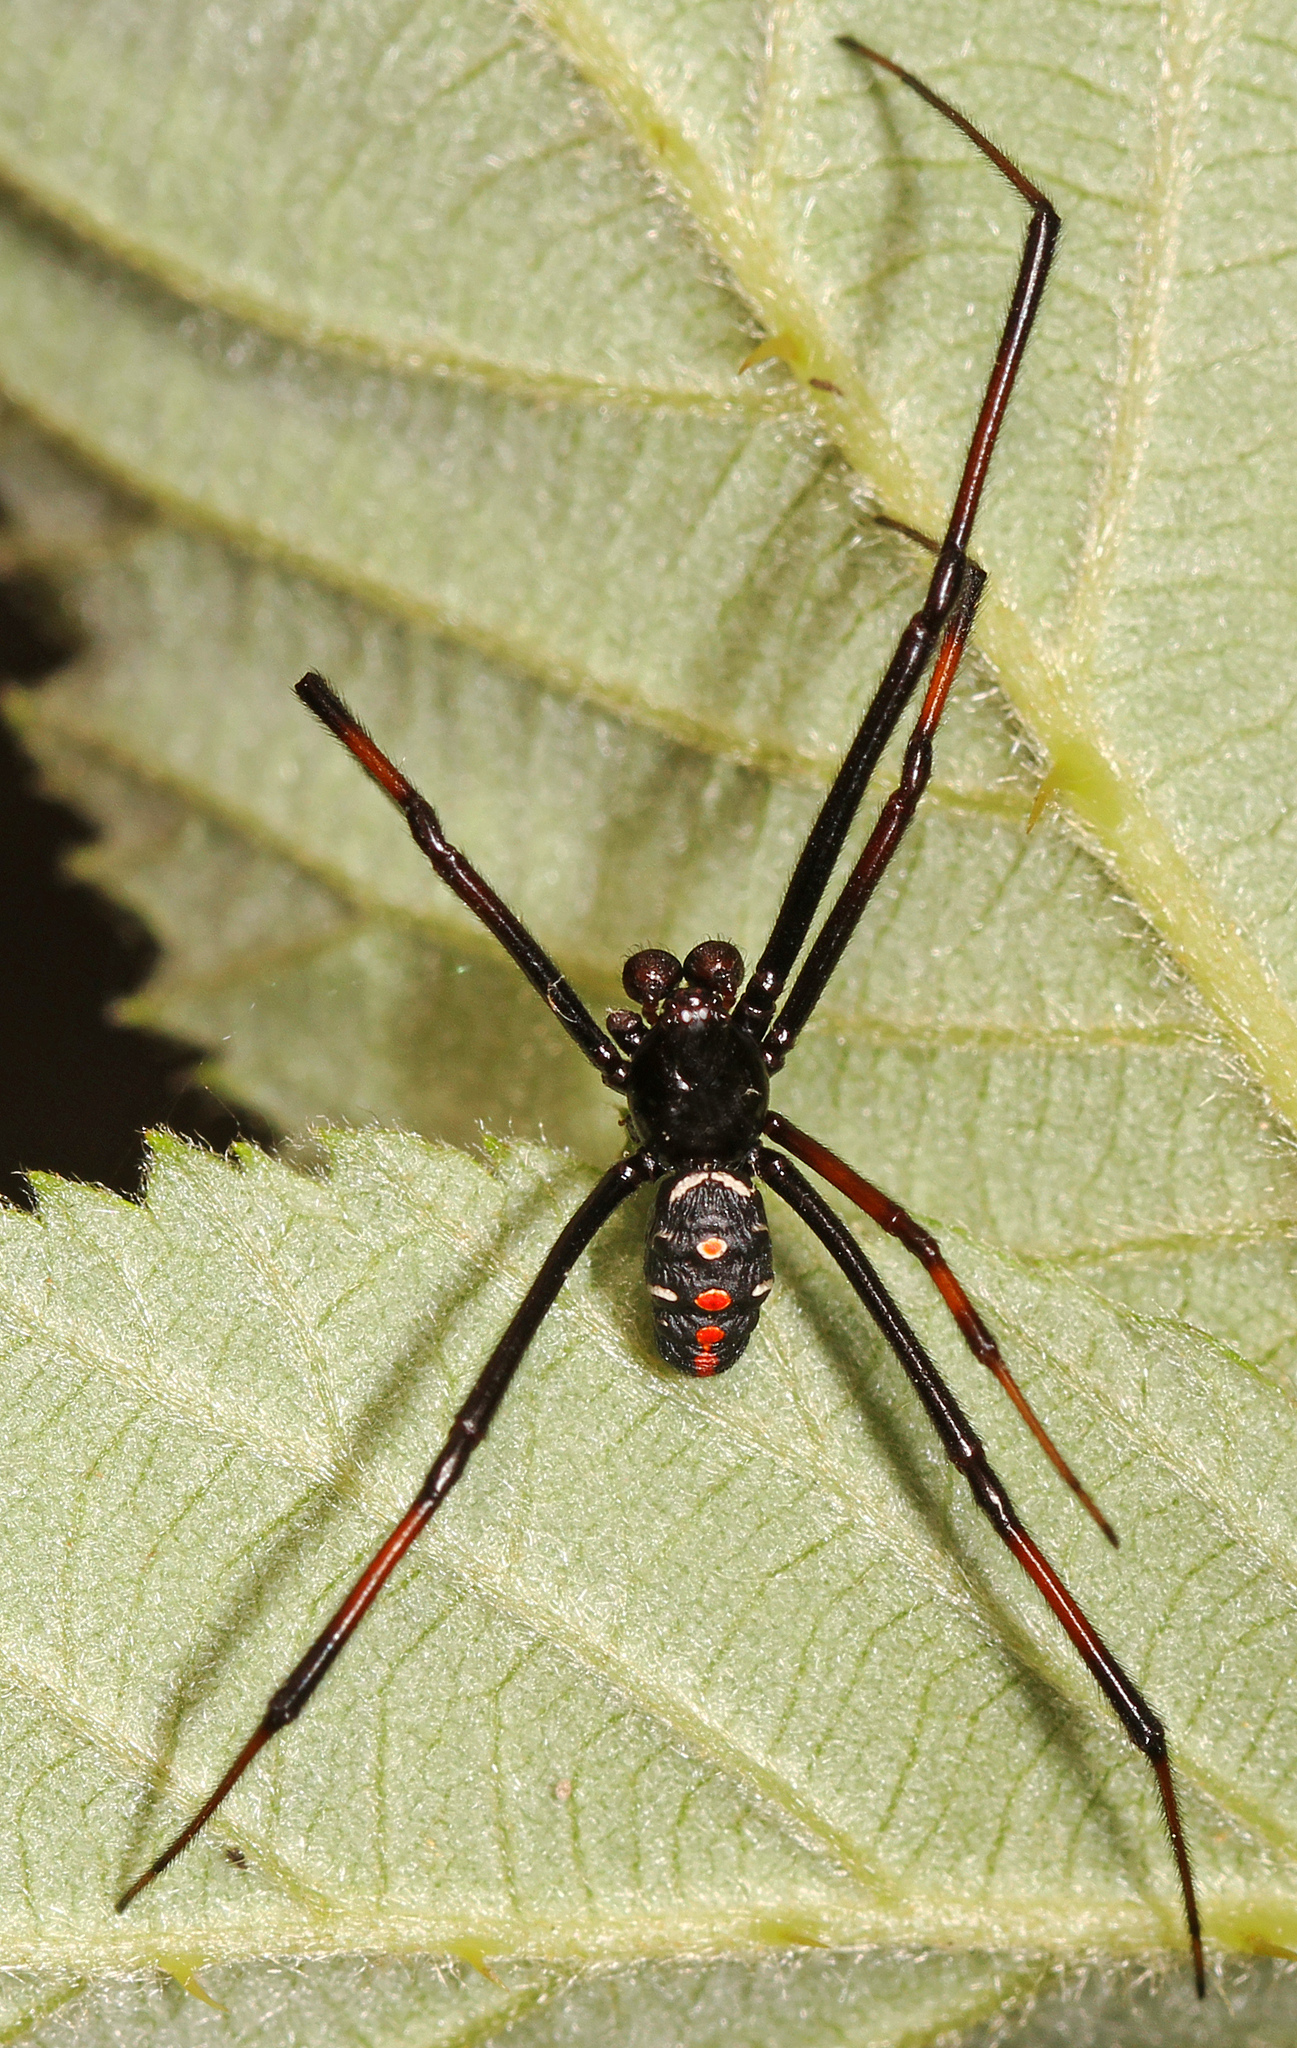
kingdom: Animalia
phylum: Arthropoda
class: Arachnida
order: Araneae
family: Theridiidae
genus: Latrodectus
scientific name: Latrodectus variolus
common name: Northern black widow
